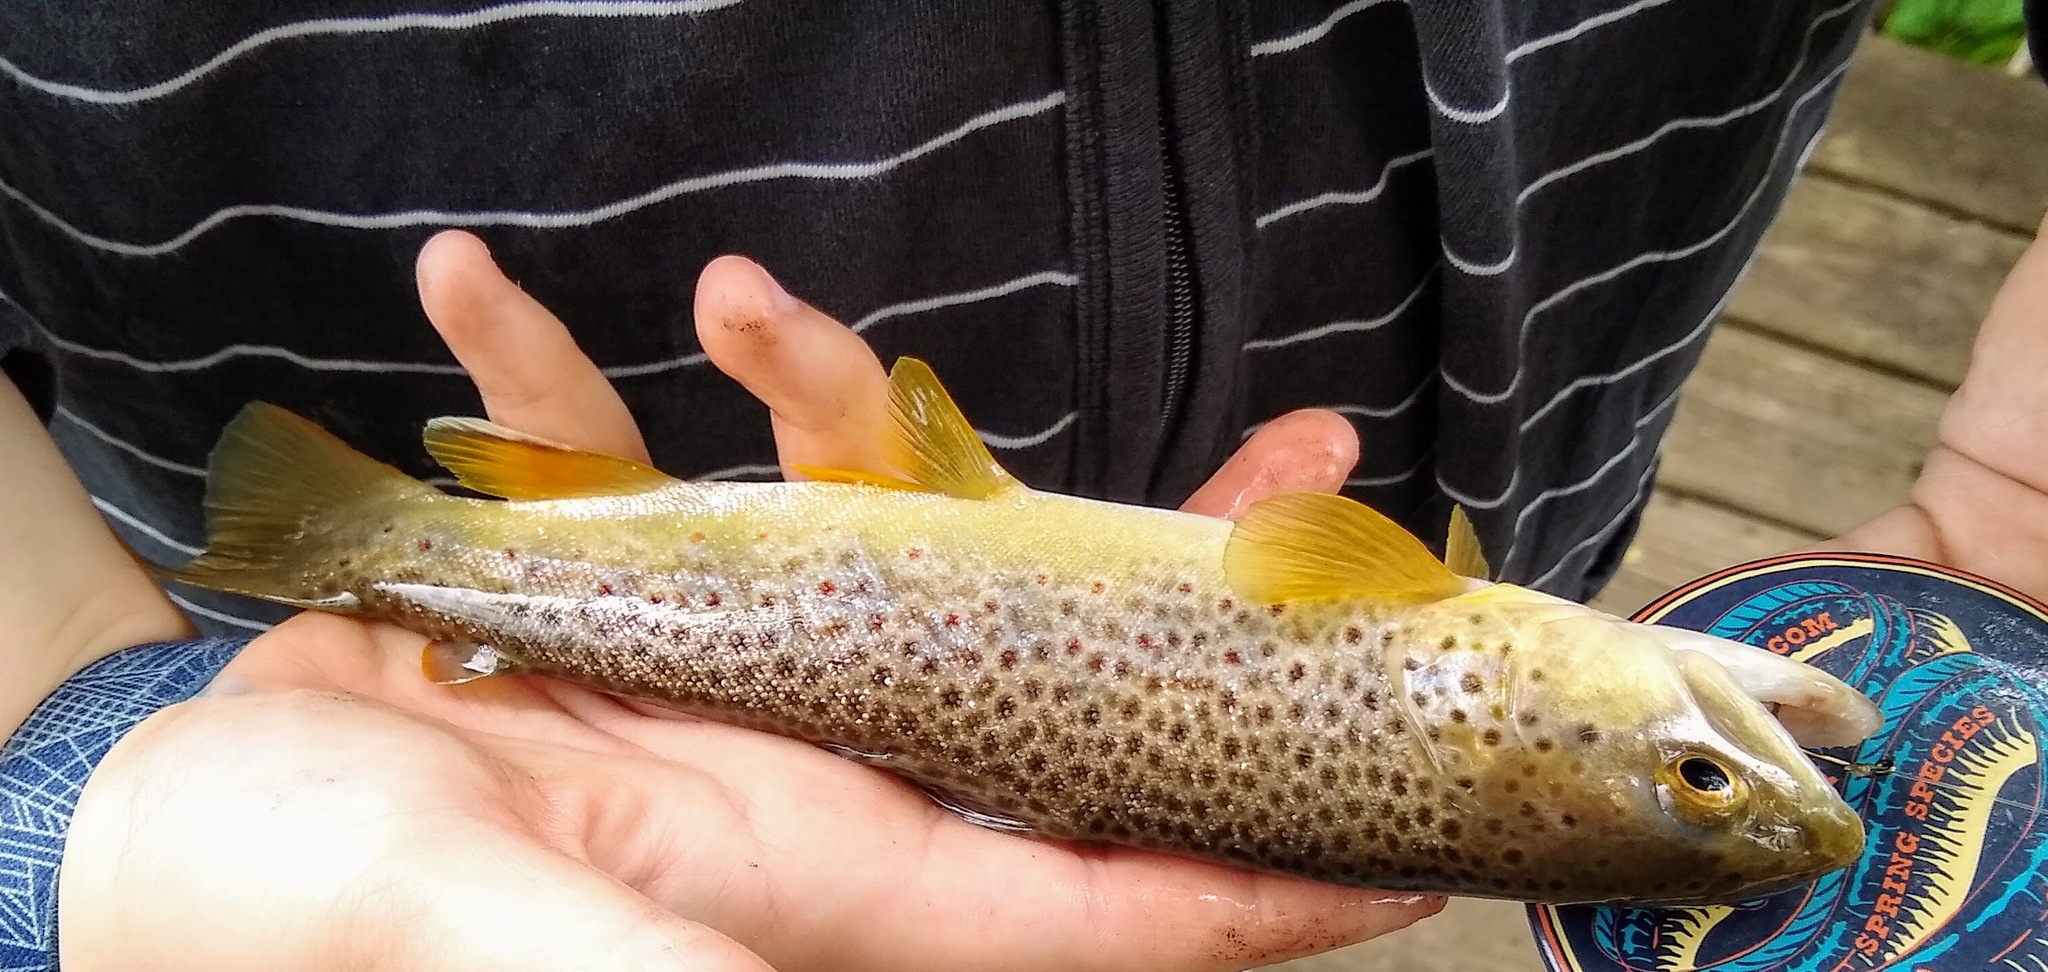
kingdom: Animalia
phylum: Chordata
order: Salmoniformes
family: Salmonidae
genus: Salmo
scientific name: Salmo trutta
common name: Brown trout
